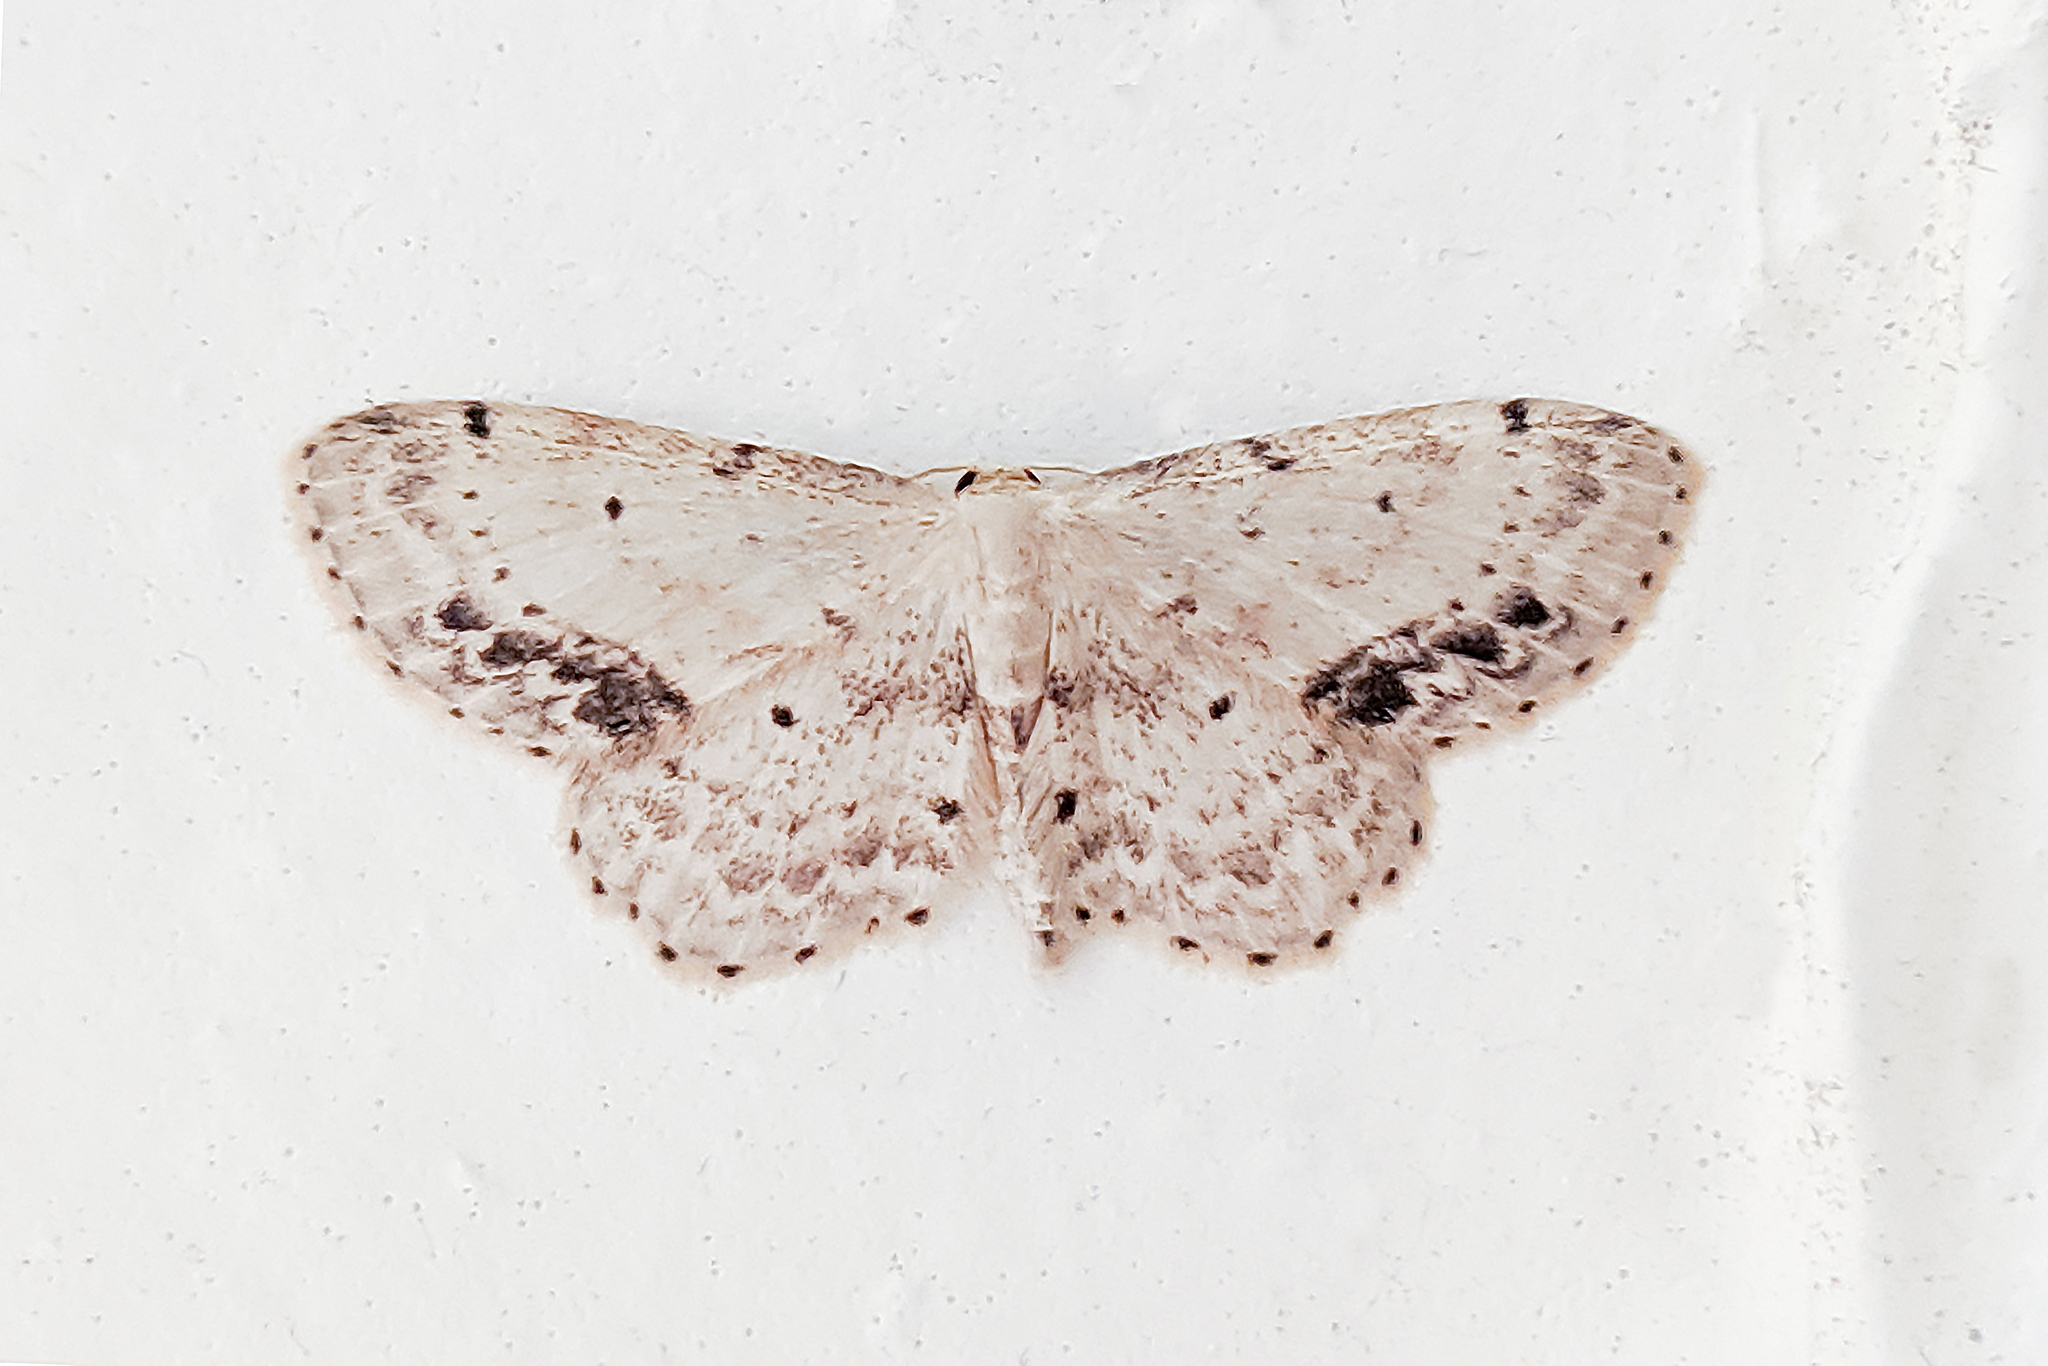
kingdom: Animalia
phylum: Arthropoda
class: Insecta
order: Lepidoptera
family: Geometridae
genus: Idaea
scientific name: Idaea dimidiata
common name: Single-dotted wave
